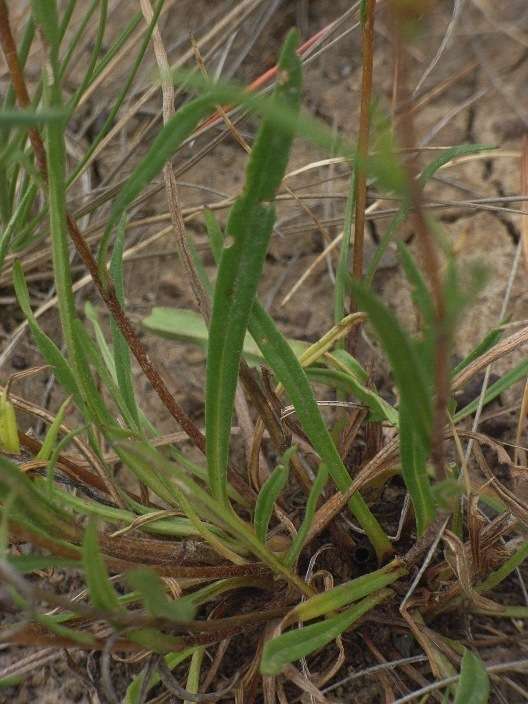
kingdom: Plantae
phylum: Tracheophyta
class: Magnoliopsida
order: Asterales
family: Asteraceae
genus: Podolepis
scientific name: Podolepis linearifolia
